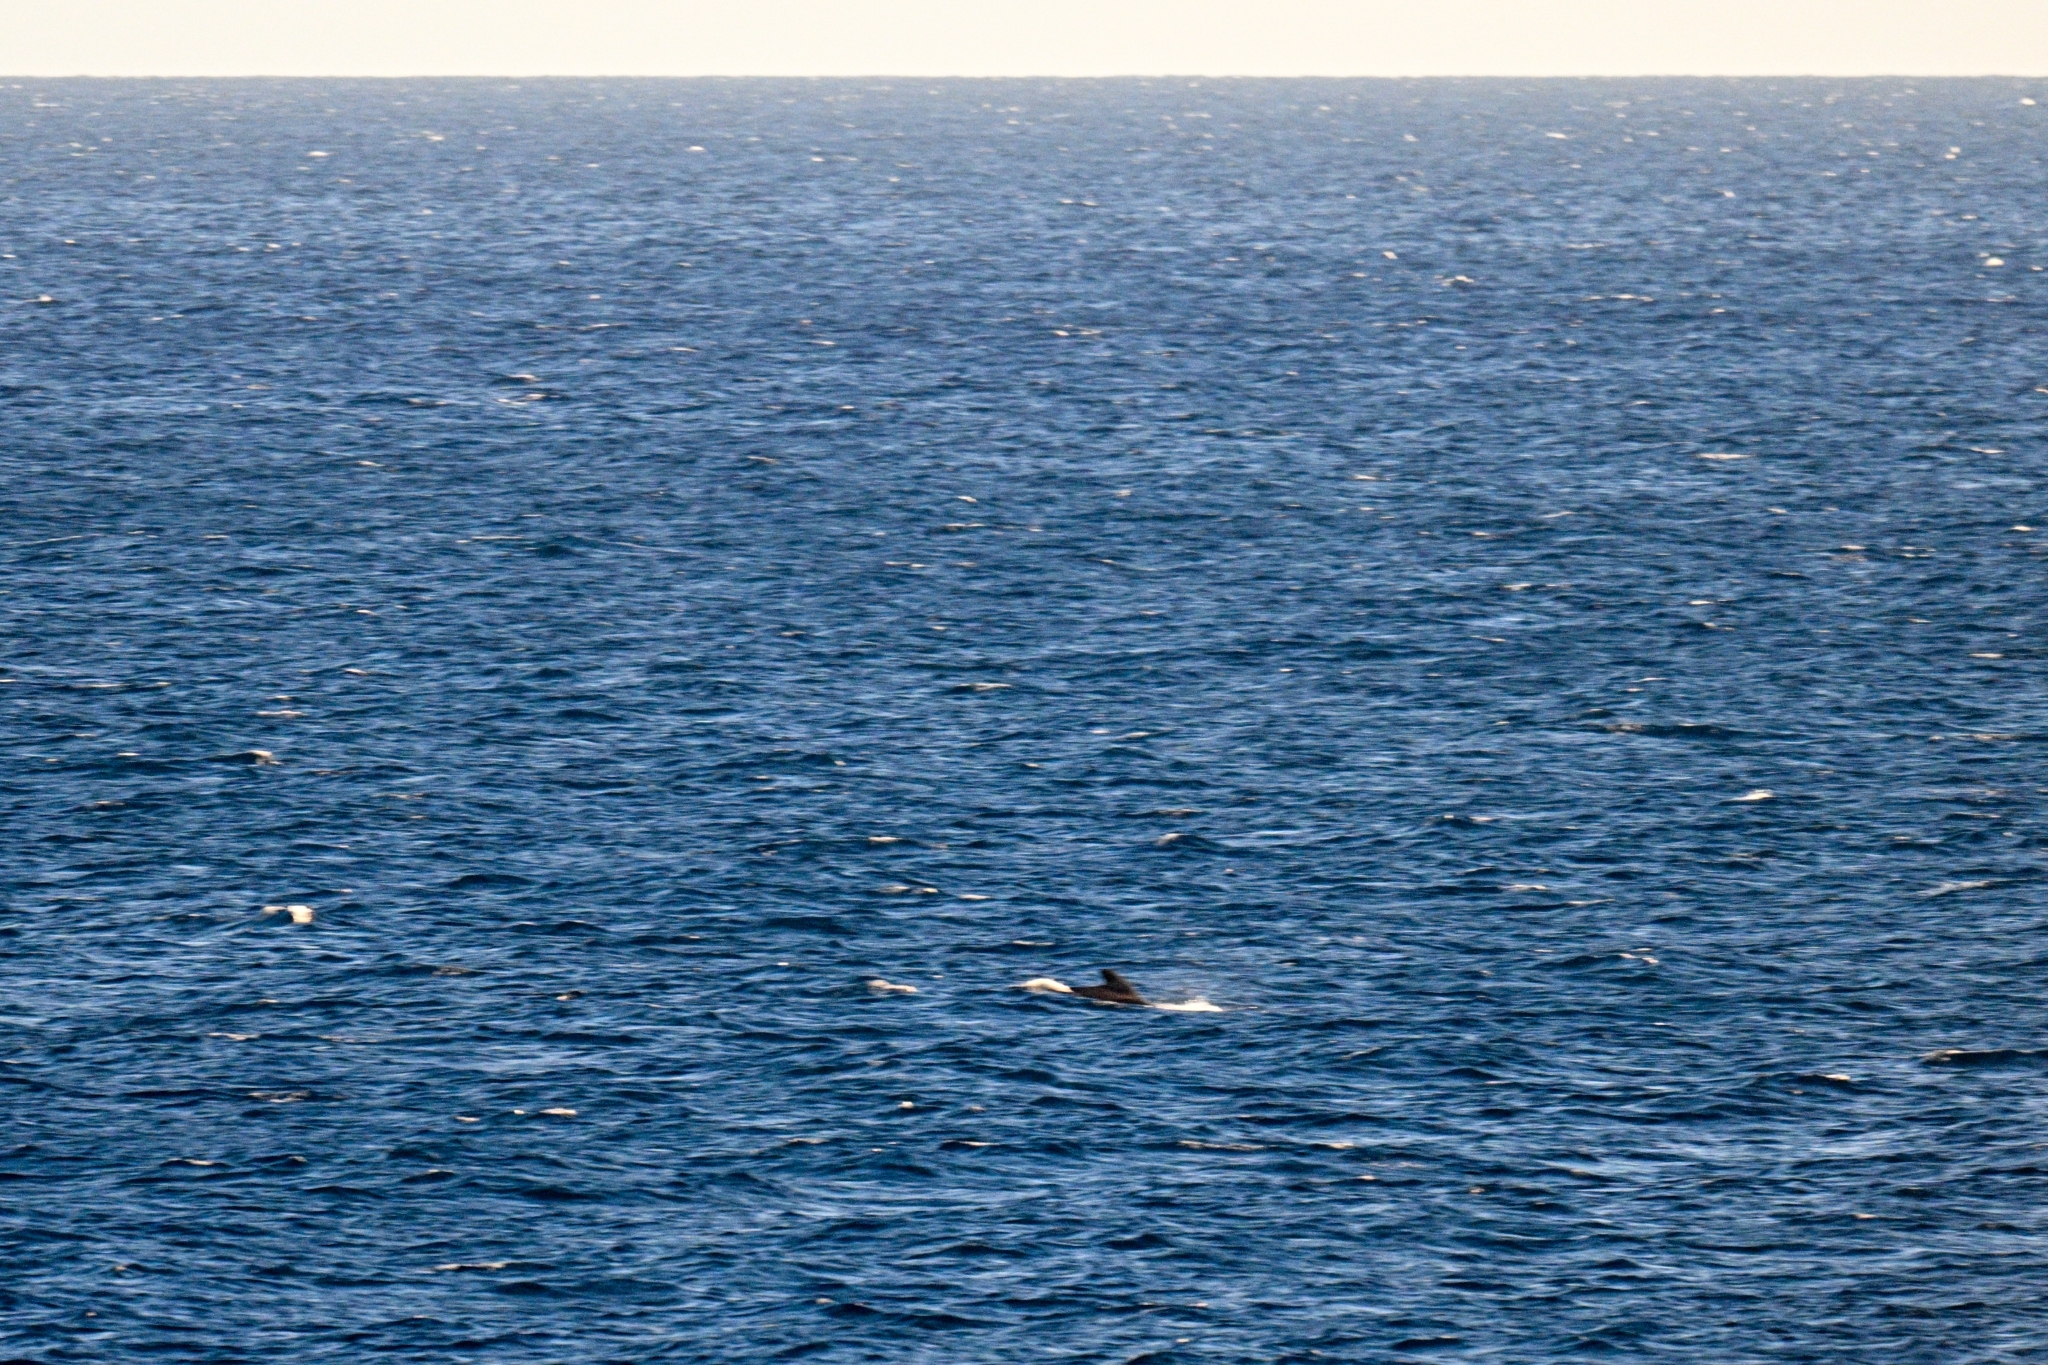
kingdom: Animalia
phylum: Chordata
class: Mammalia
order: Cetacea
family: Delphinidae
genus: Globicephala
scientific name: Globicephala macrorhynchus
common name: Short-finned pilot whale
